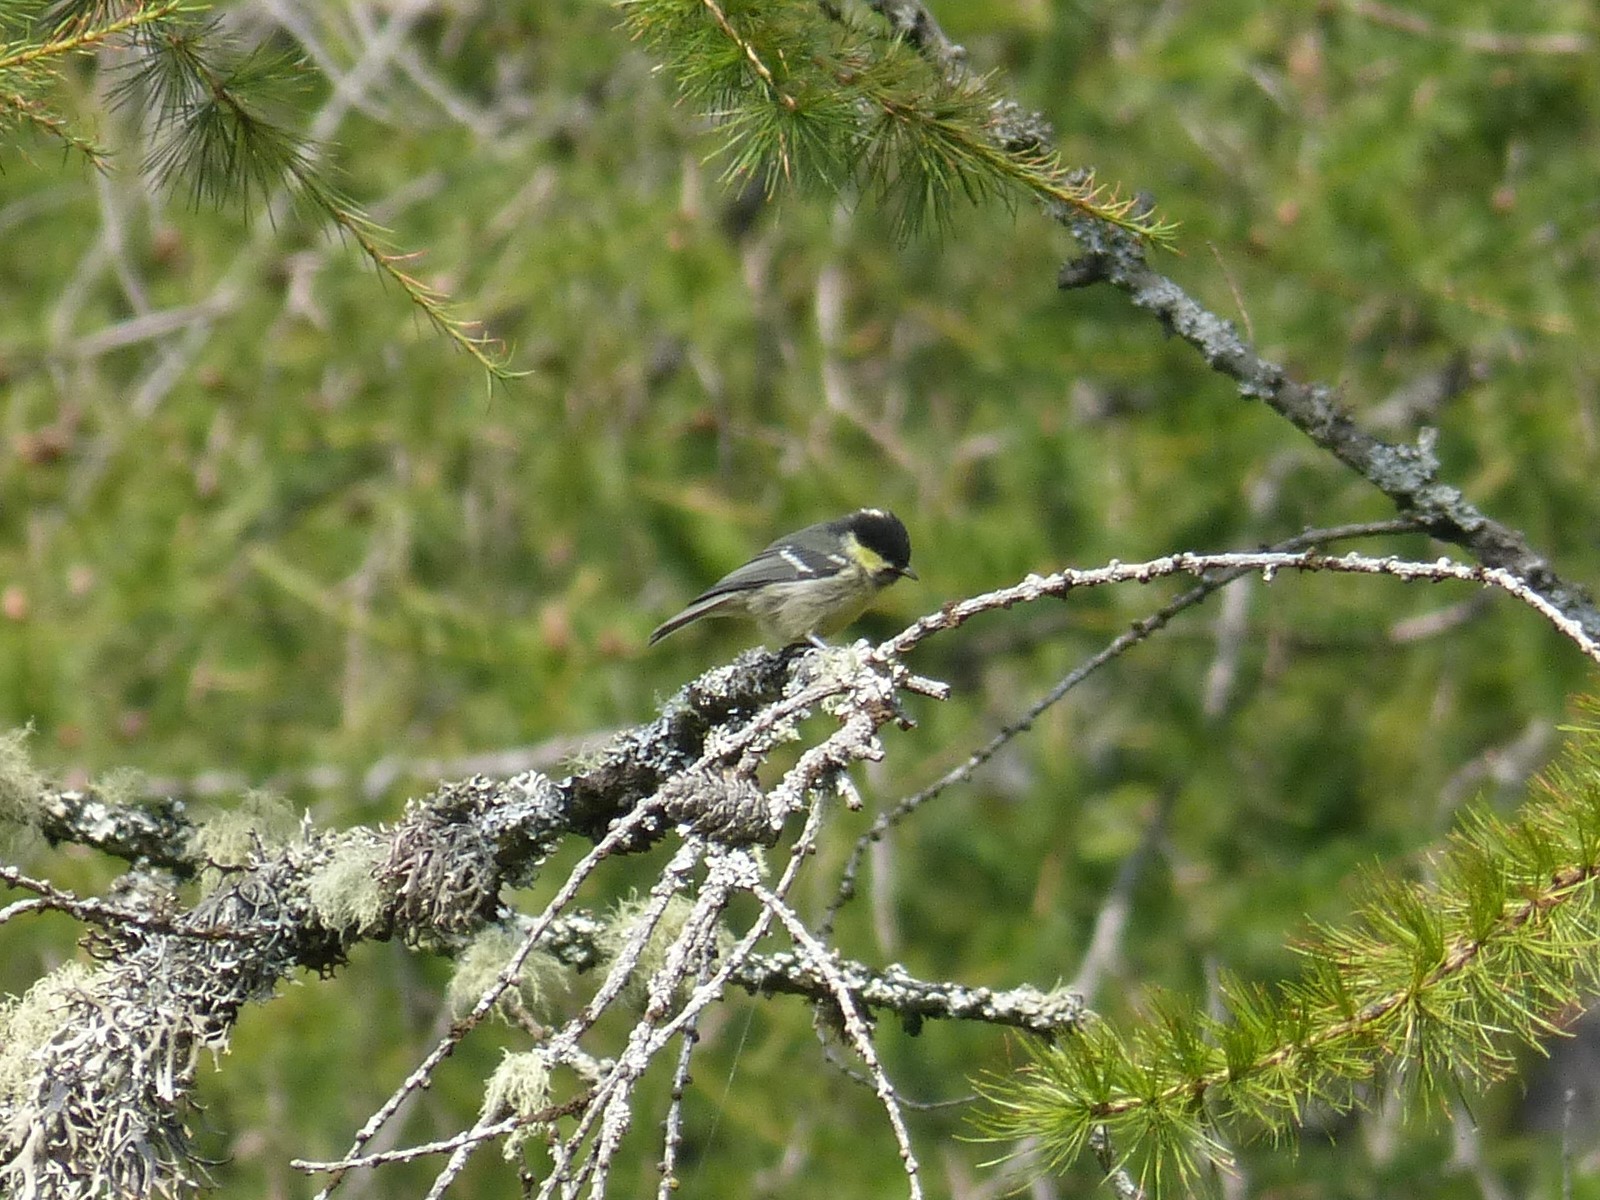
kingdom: Animalia
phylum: Chordata
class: Aves
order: Passeriformes
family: Paridae
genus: Periparus
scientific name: Periparus ater
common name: Coal tit
